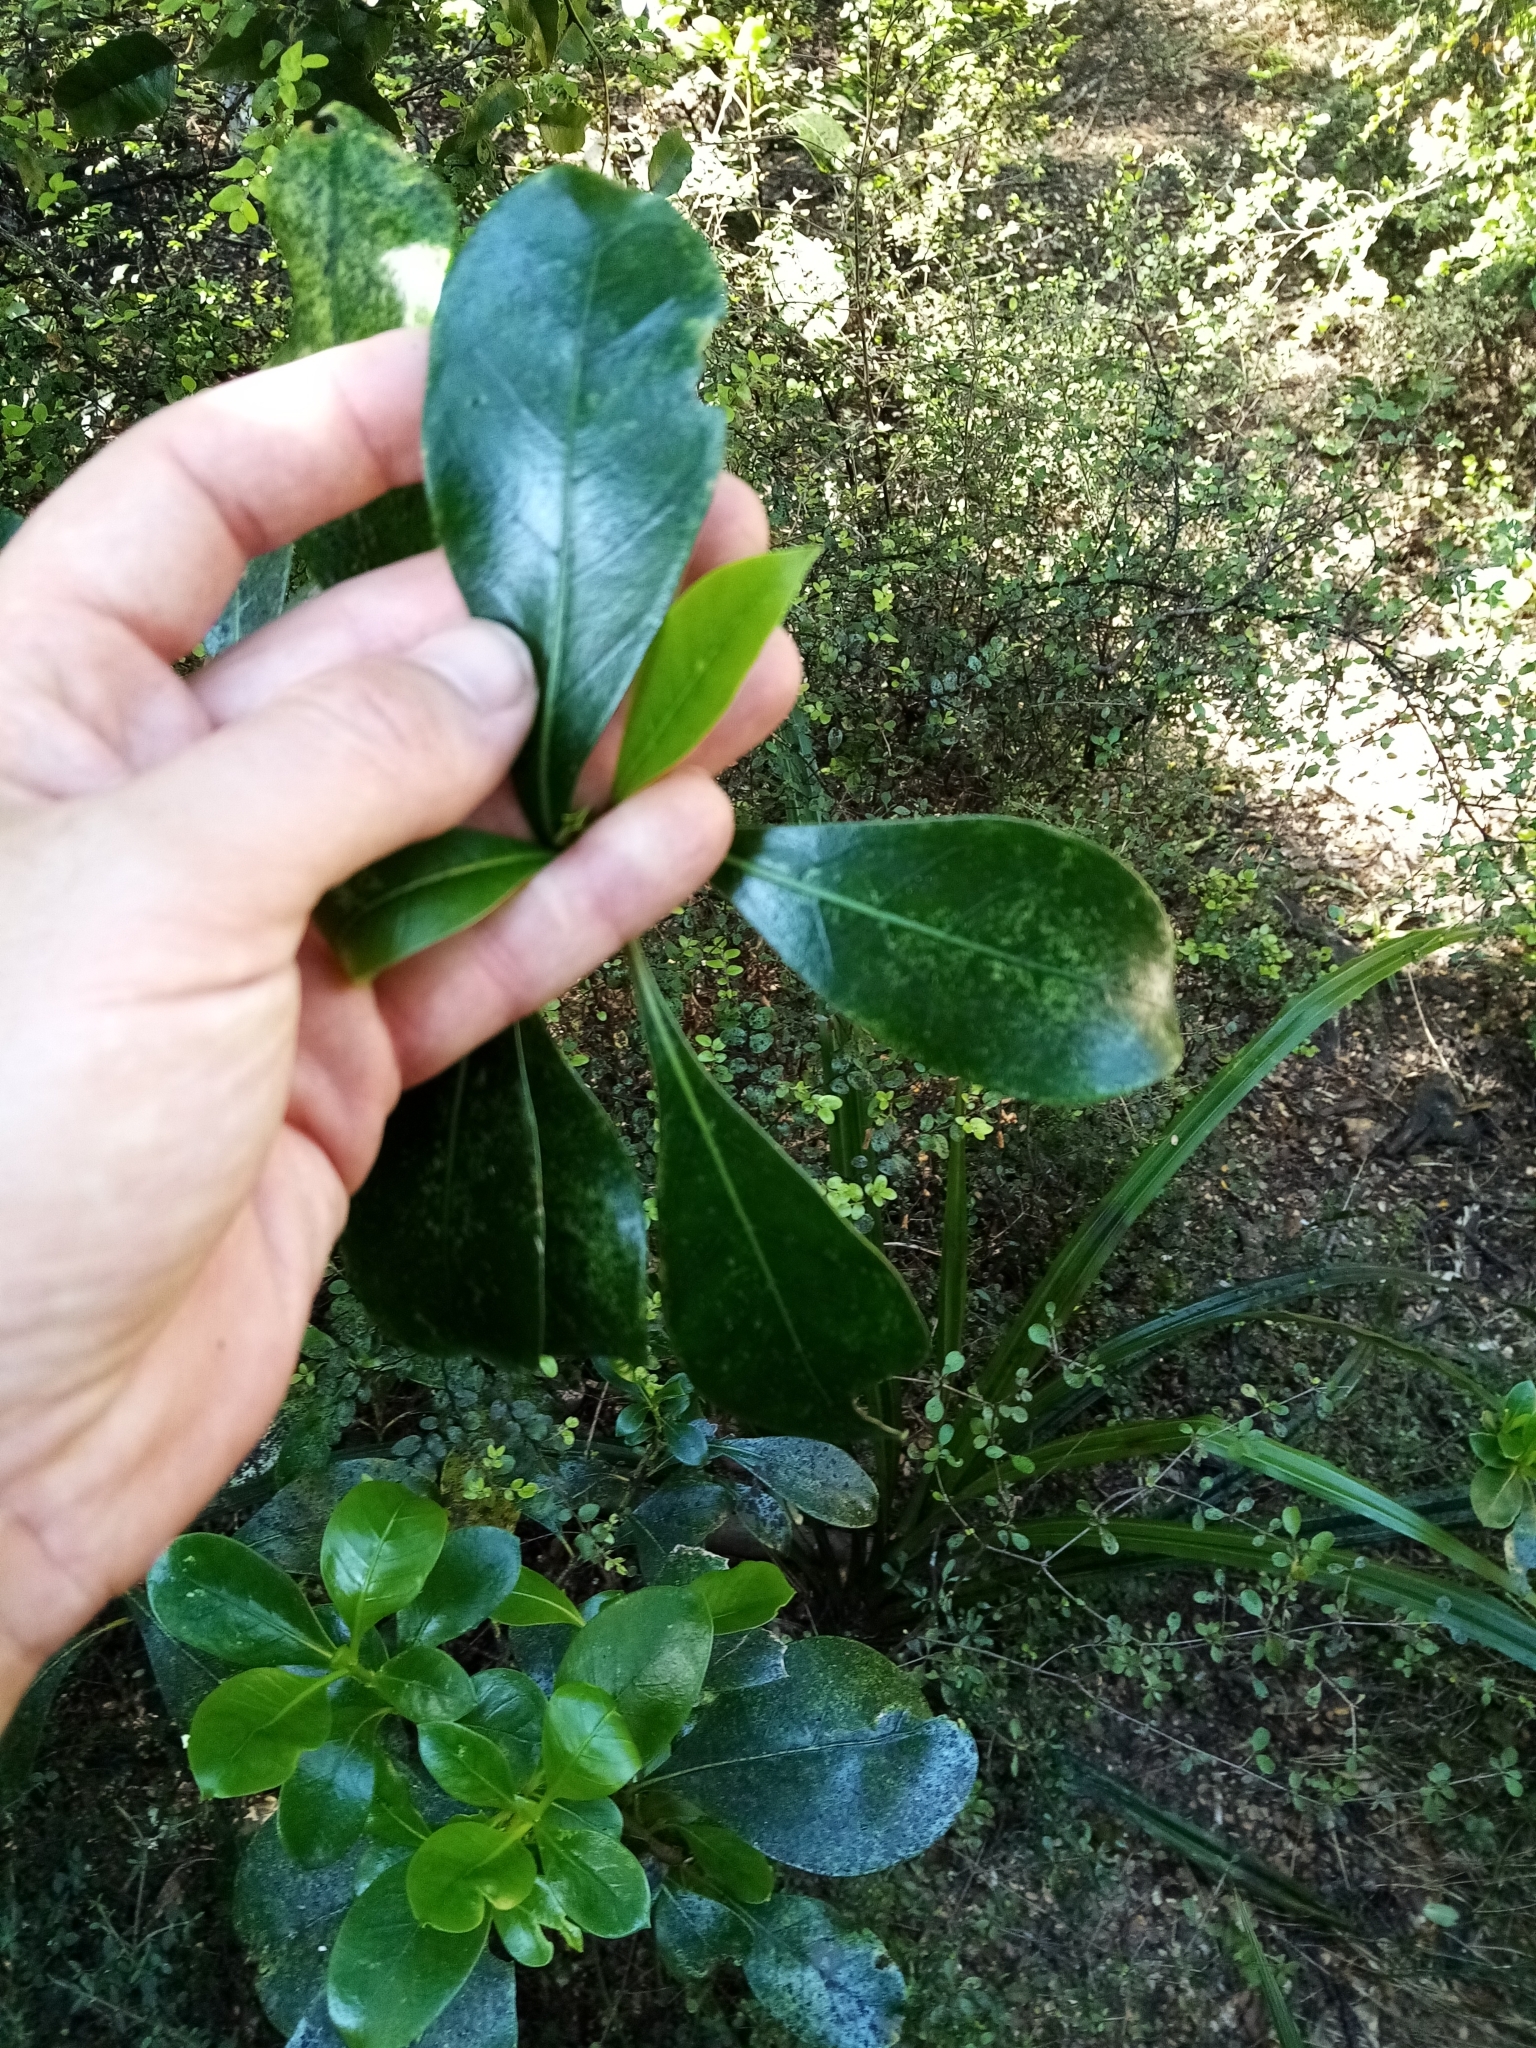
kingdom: Plantae
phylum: Tracheophyta
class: Magnoliopsida
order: Gentianales
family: Rubiaceae
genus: Coprosma
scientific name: Coprosma lucida
